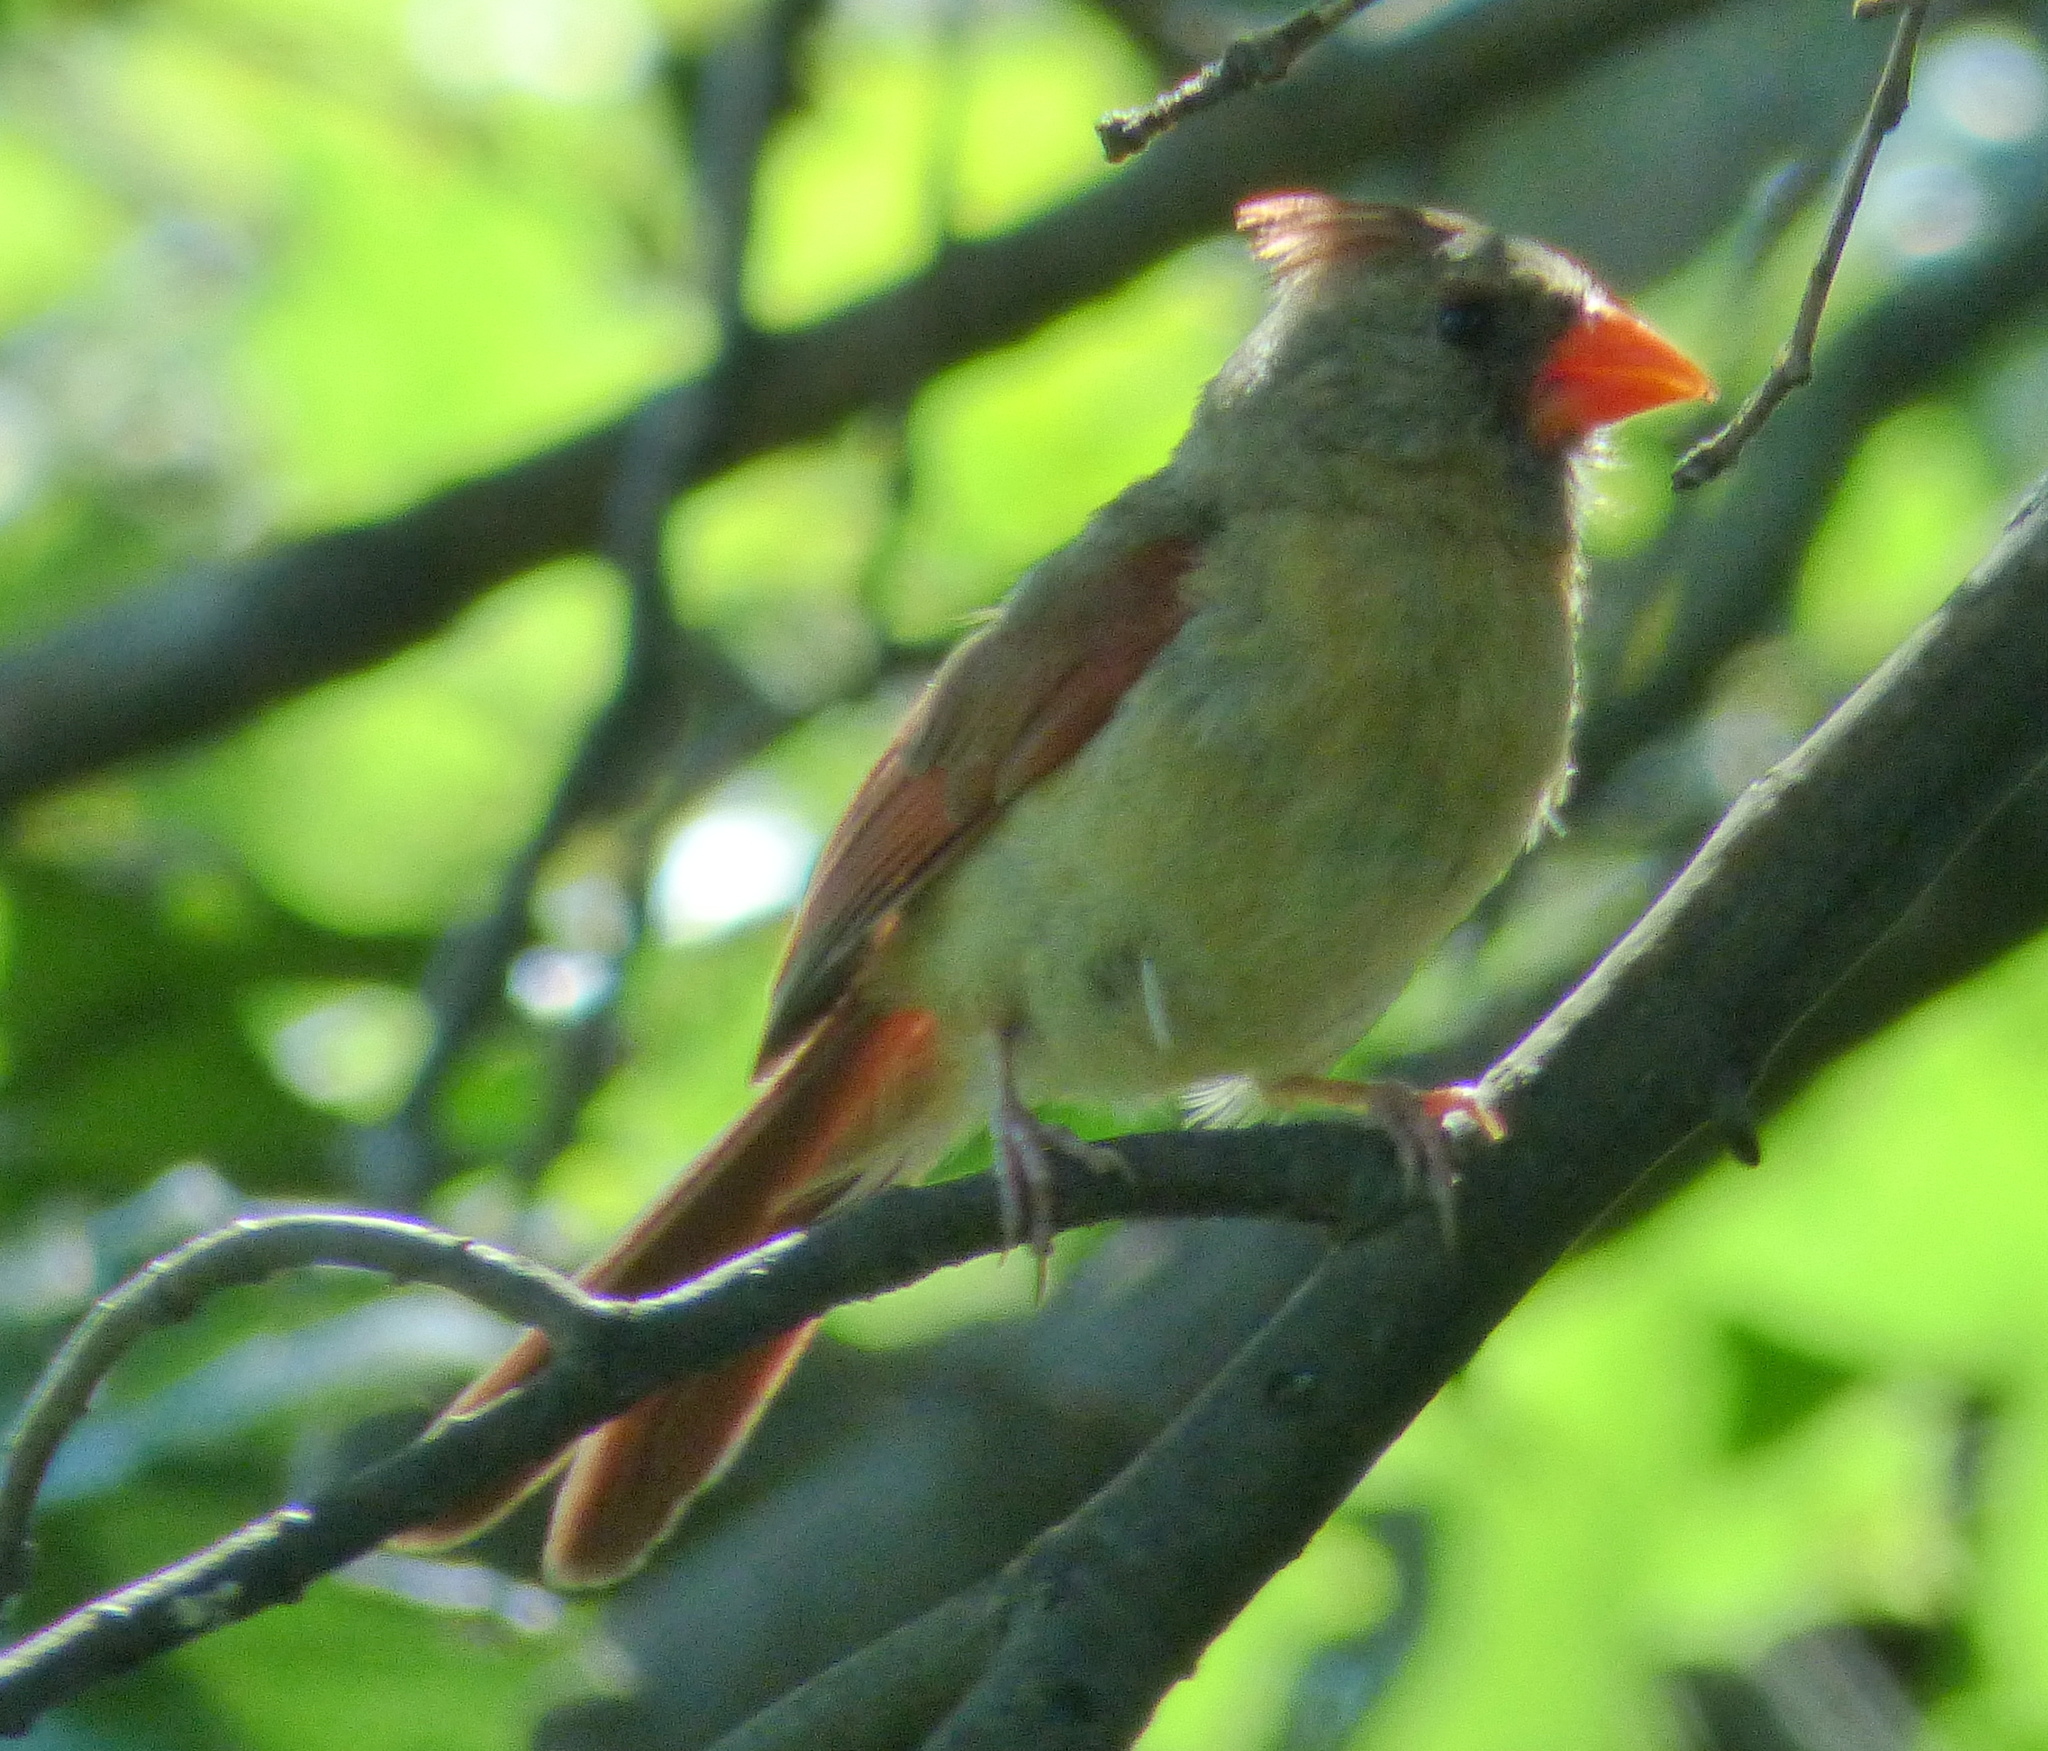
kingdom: Animalia
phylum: Chordata
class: Aves
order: Passeriformes
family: Cardinalidae
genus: Cardinalis
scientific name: Cardinalis cardinalis
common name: Northern cardinal
